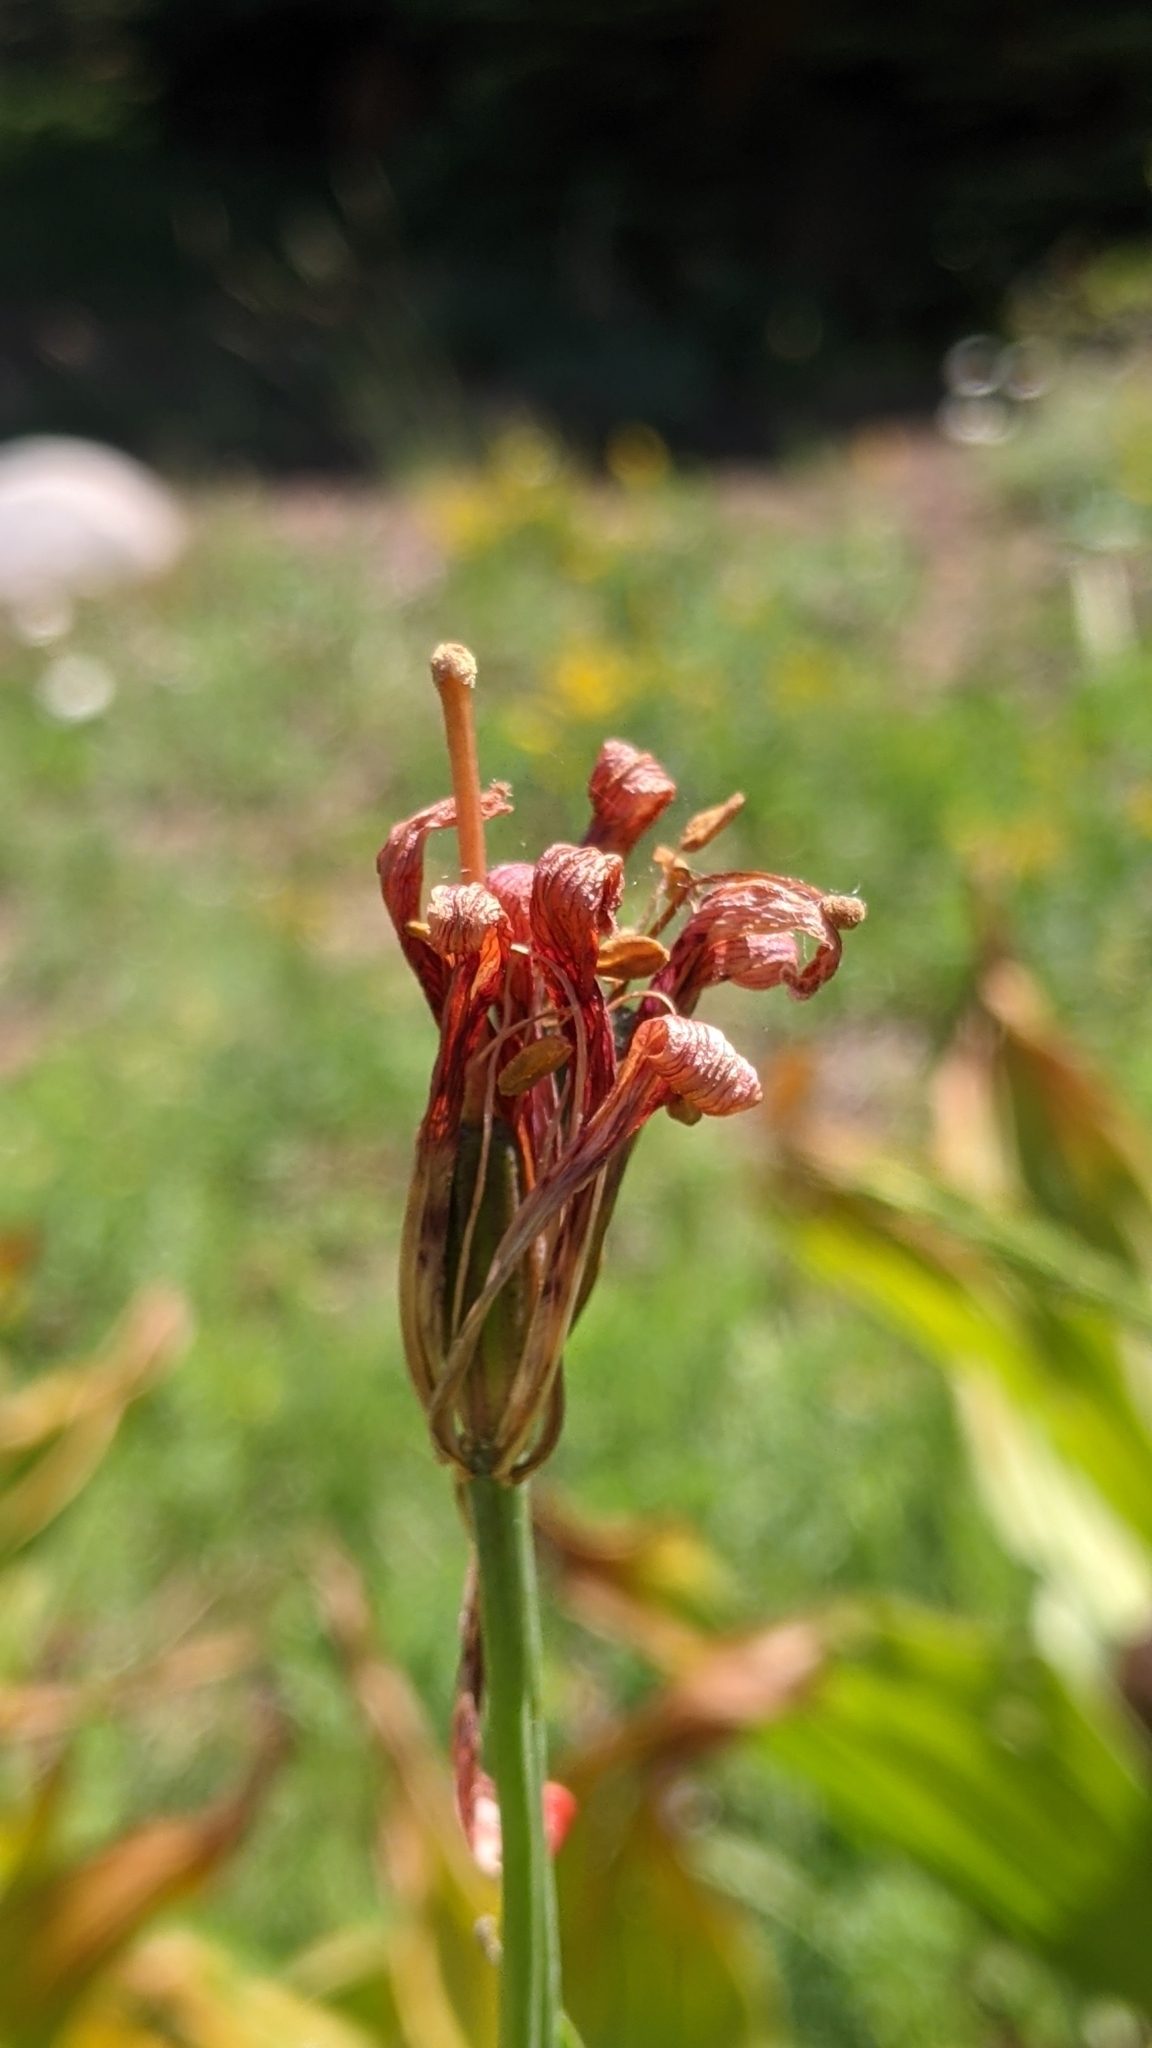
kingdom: Plantae
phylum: Tracheophyta
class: Liliopsida
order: Liliales
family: Liliaceae
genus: Lilium
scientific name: Lilium parvum
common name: Alpine lily
